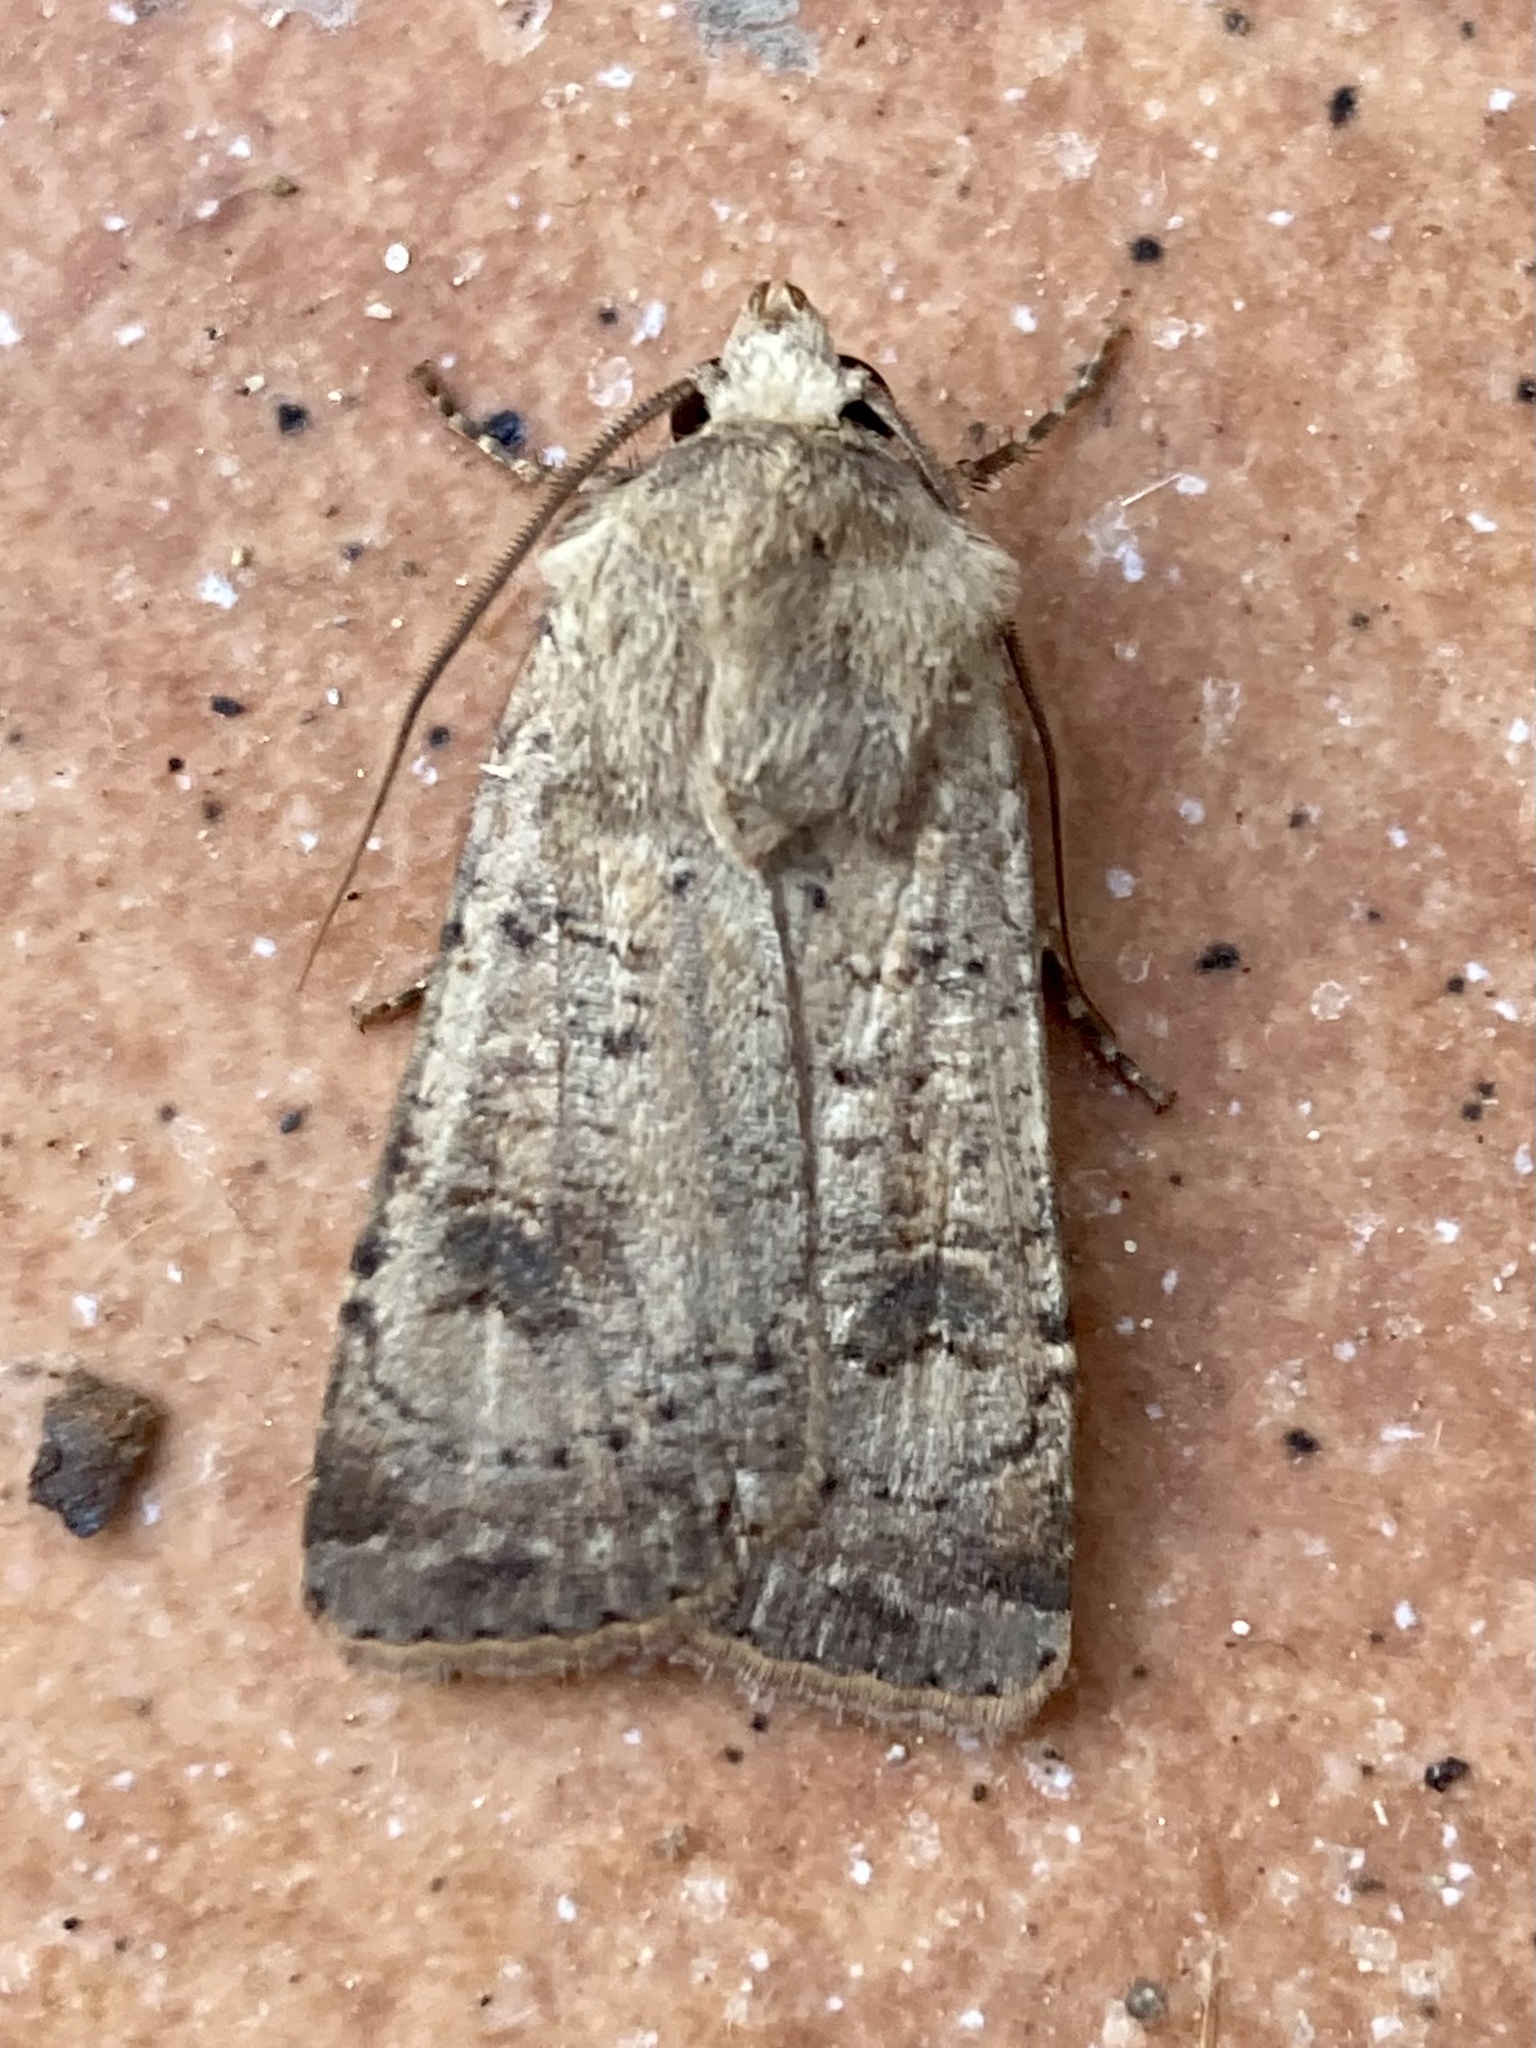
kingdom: Animalia
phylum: Arthropoda
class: Insecta
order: Lepidoptera
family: Noctuidae
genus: Agrotis
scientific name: Agrotis trux
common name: Crescent dart
